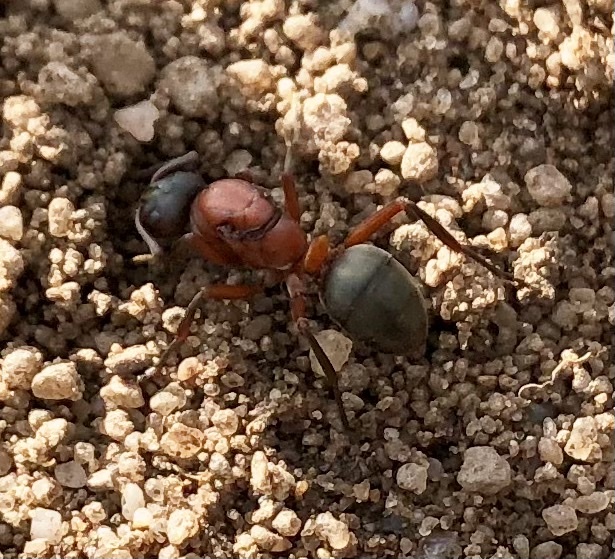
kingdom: Animalia
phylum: Arthropoda
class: Insecta
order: Hymenoptera
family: Formicidae
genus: Formica
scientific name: Formica sanguinea
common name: Blood-red ant
